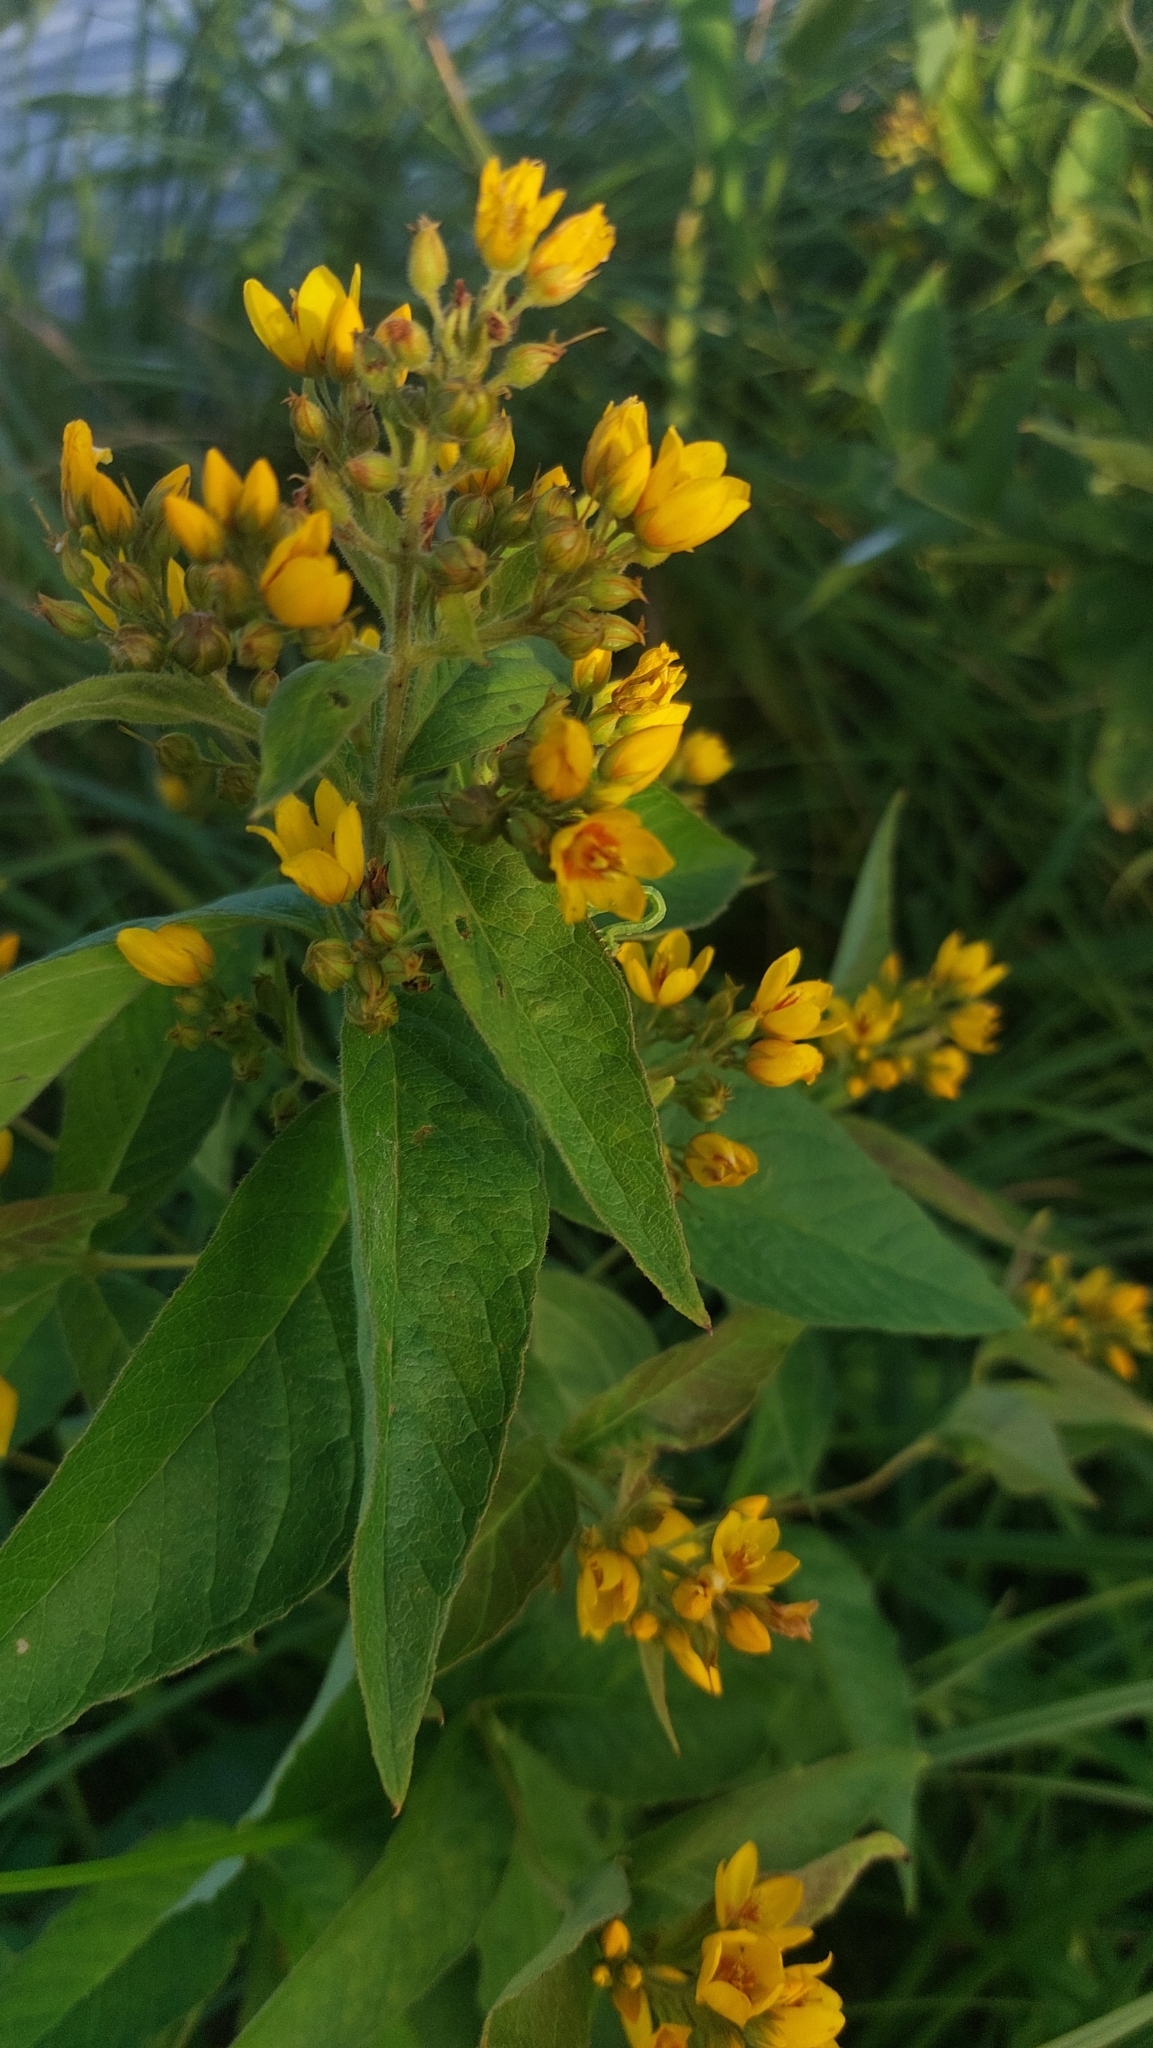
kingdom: Plantae
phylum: Tracheophyta
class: Magnoliopsida
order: Ericales
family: Primulaceae
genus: Lysimachia
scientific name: Lysimachia vulgaris
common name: Yellow loosestrife
